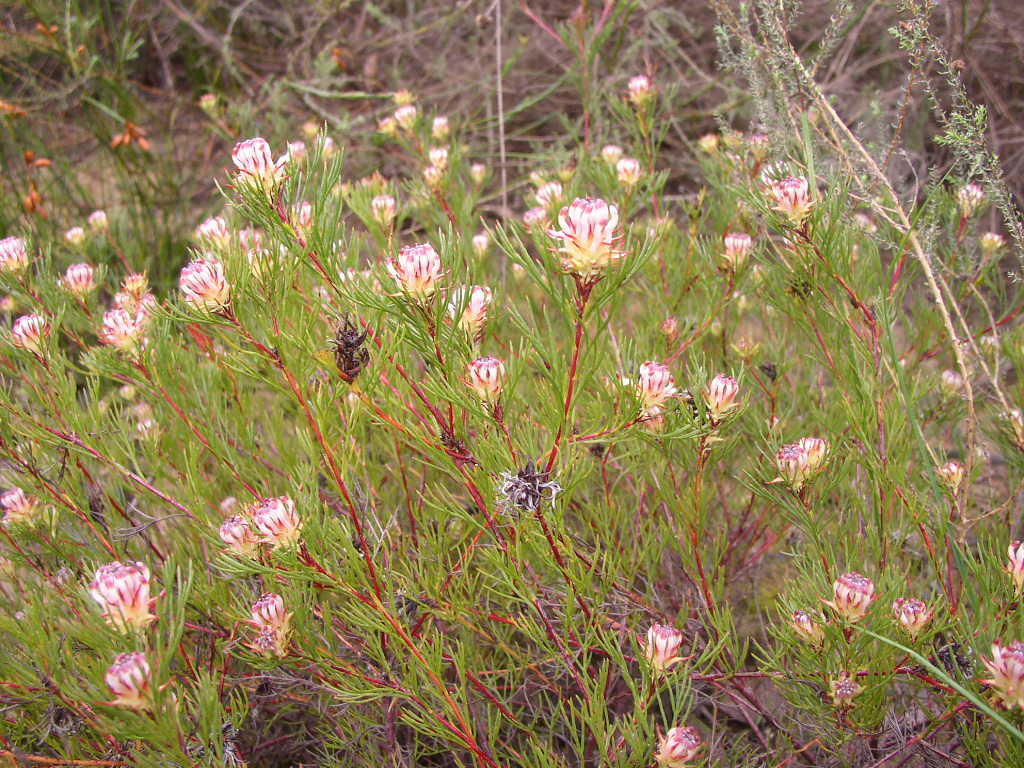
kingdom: Plantae
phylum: Tracheophyta
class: Magnoliopsida
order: Proteales
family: Proteaceae
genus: Serruria
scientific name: Serruria bolusii
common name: Agulhas spiderhead
